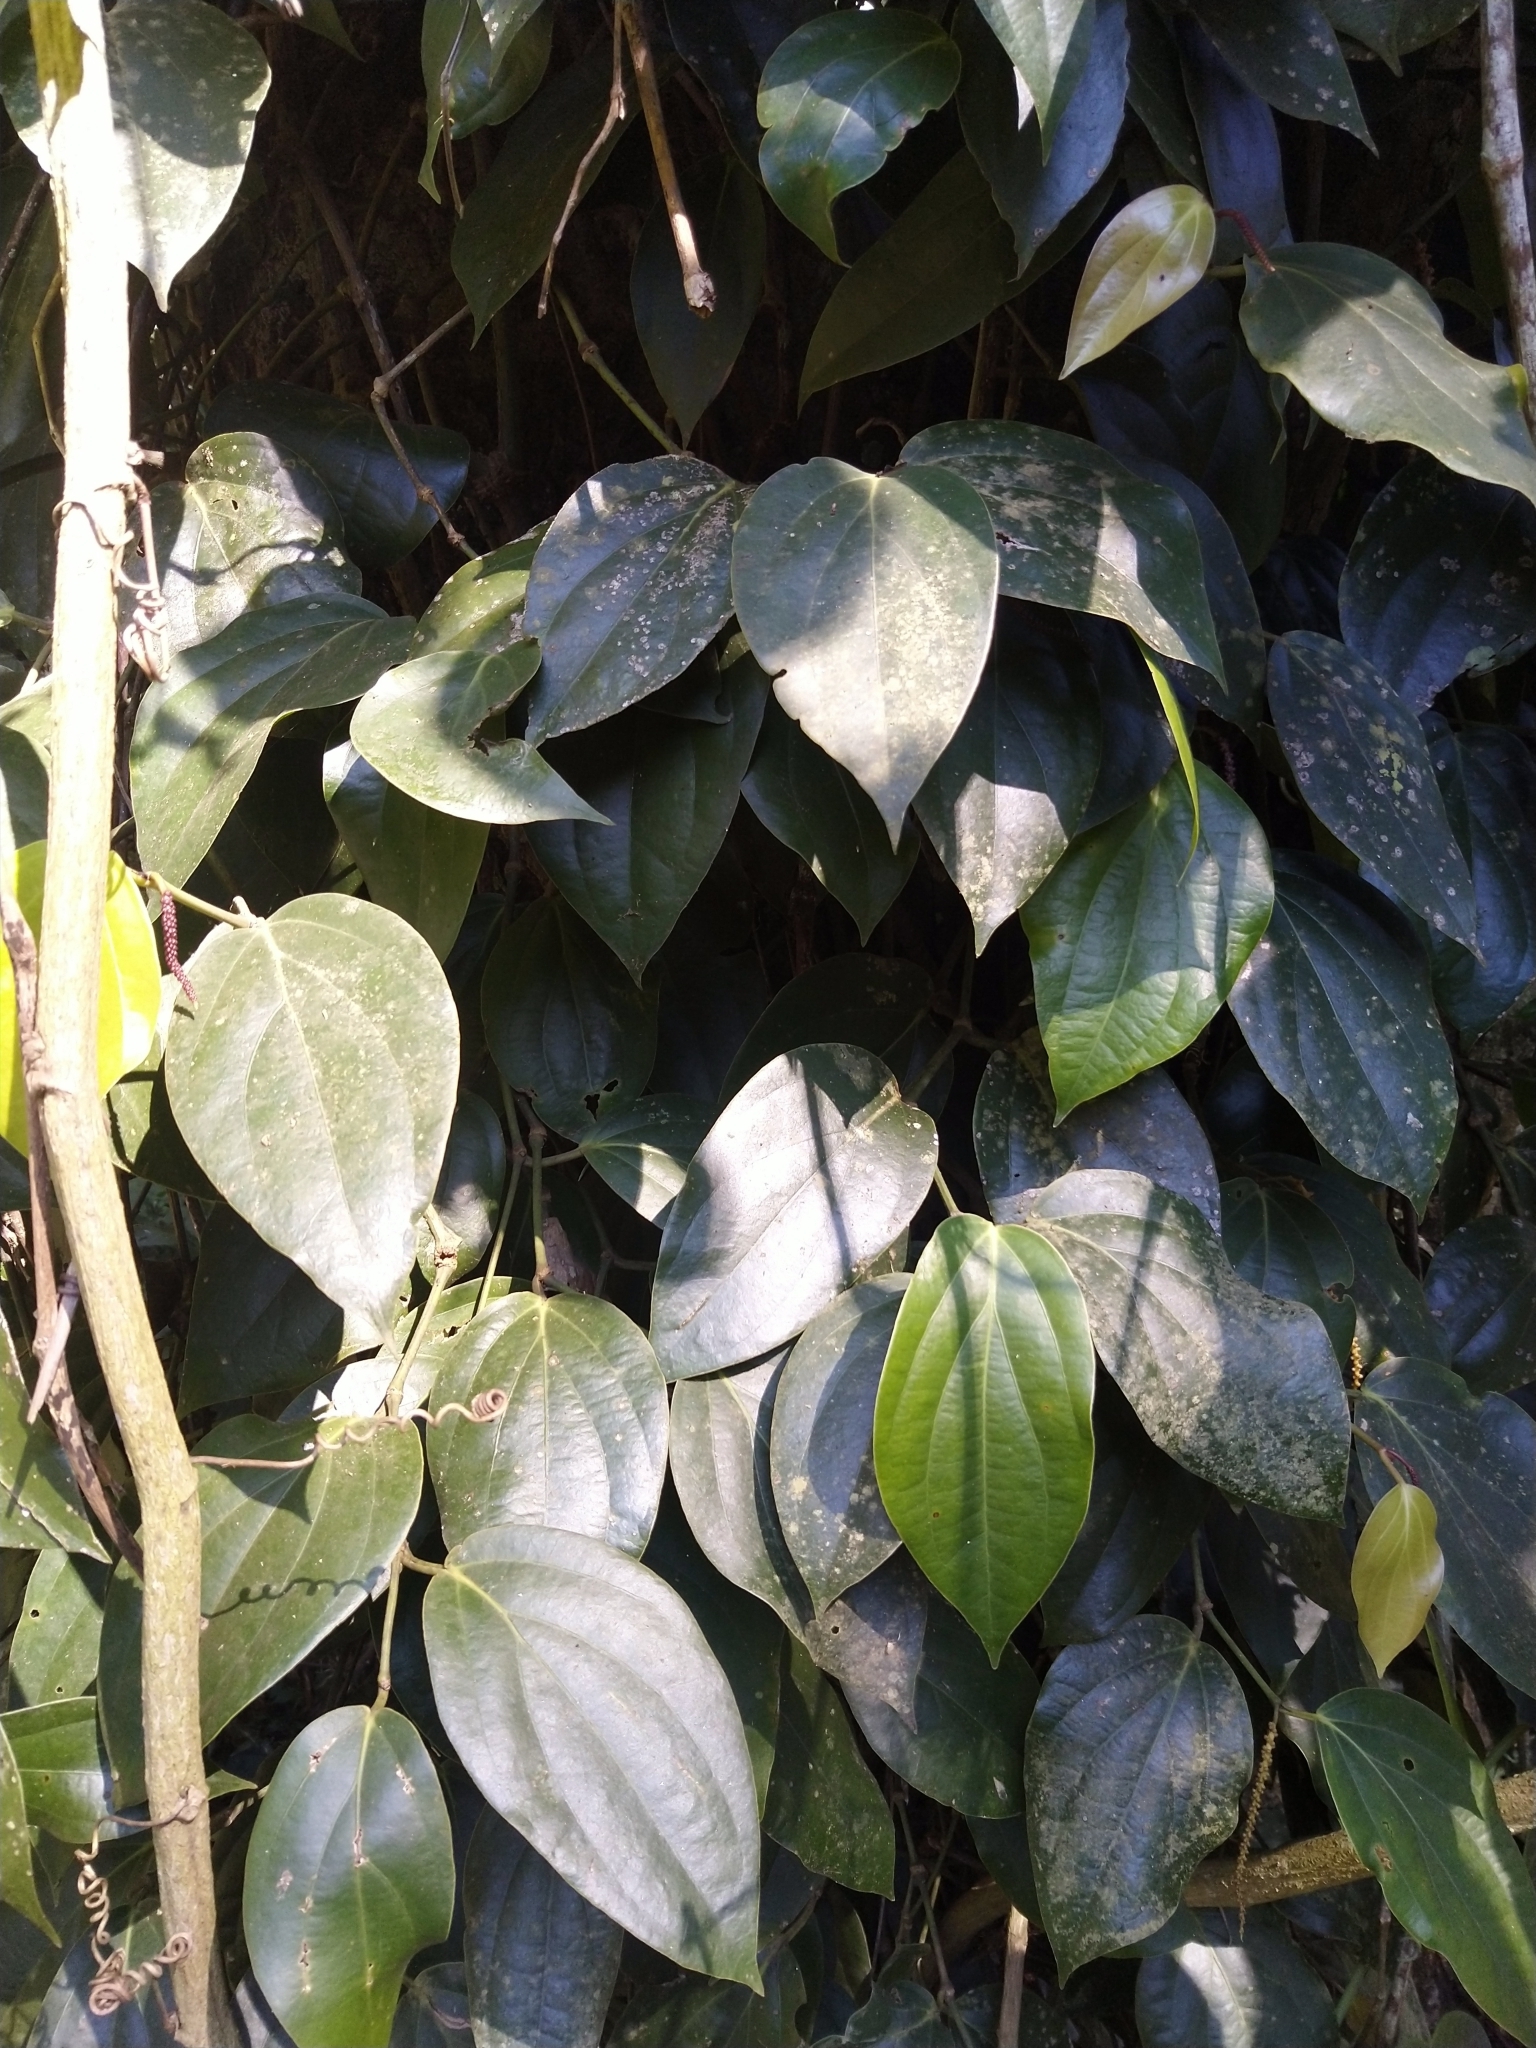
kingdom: Plantae
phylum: Tracheophyta
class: Magnoliopsida
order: Piperales
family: Piperaceae
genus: Piper
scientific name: Piper nigrum
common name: Black pepper
